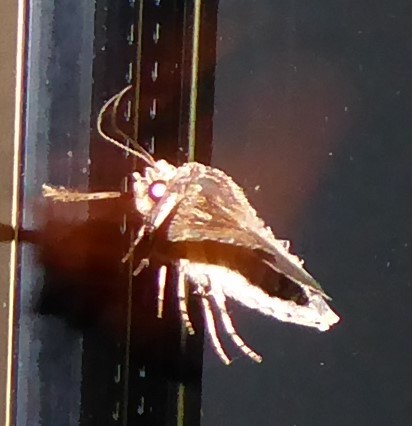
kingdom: Animalia
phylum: Arthropoda
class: Insecta
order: Lepidoptera
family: Noctuidae
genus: Meterana
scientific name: Meterana stipata
